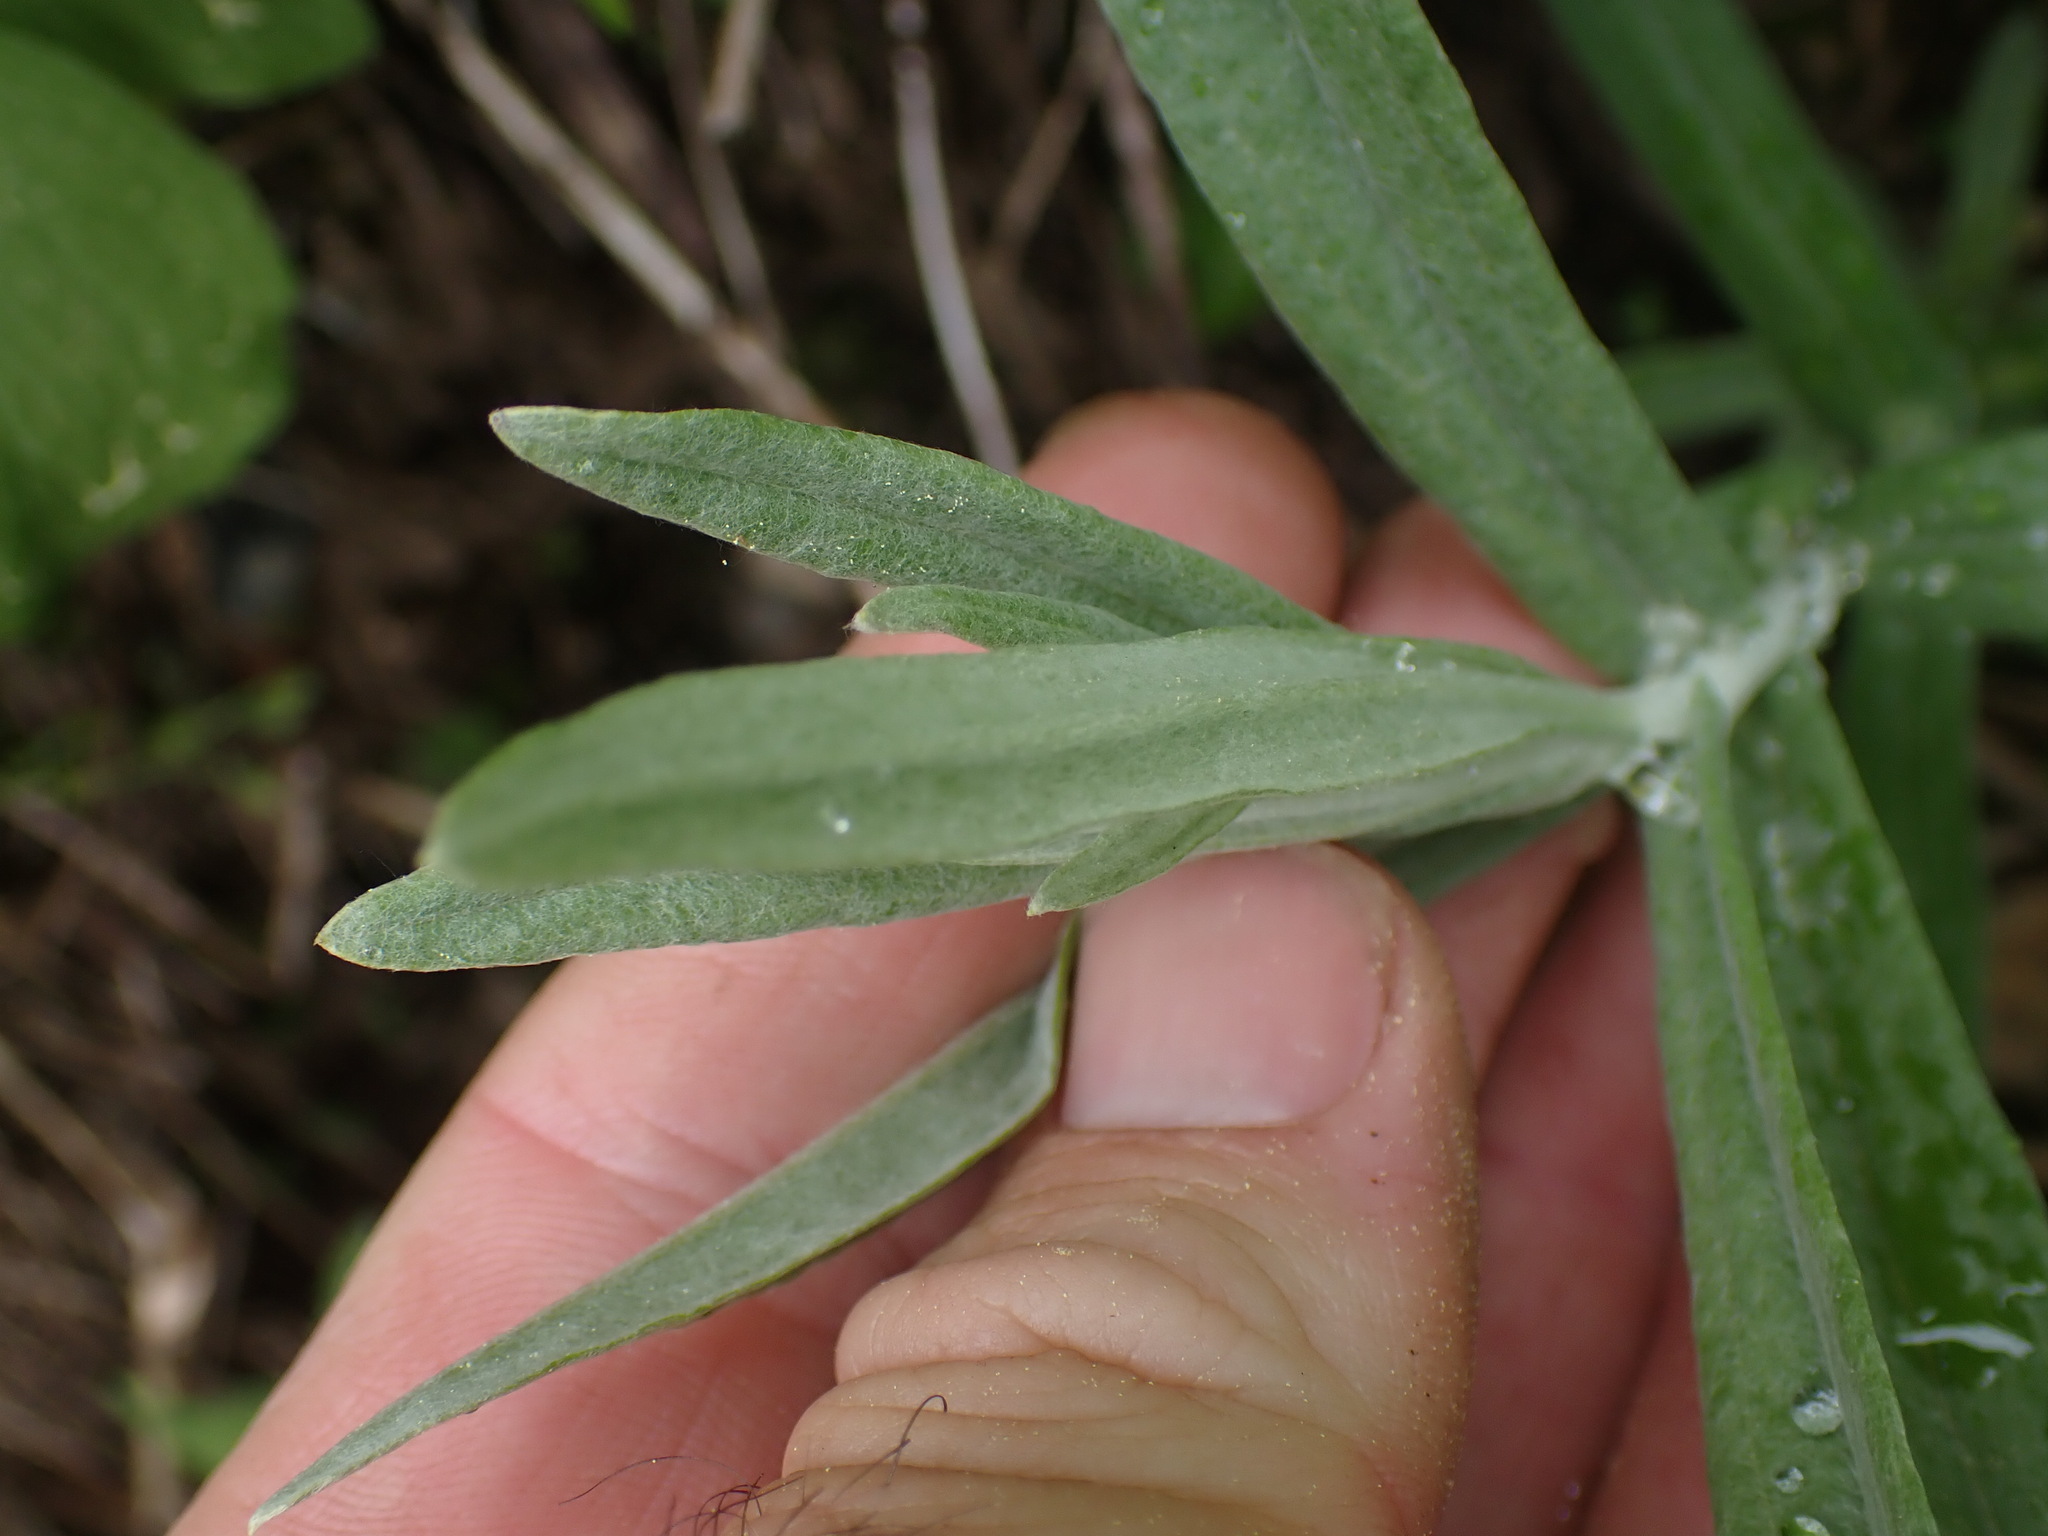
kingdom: Plantae
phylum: Tracheophyta
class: Magnoliopsida
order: Asterales
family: Asteraceae
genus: Anaphalis
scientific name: Anaphalis margaritacea
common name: Pearly everlasting
